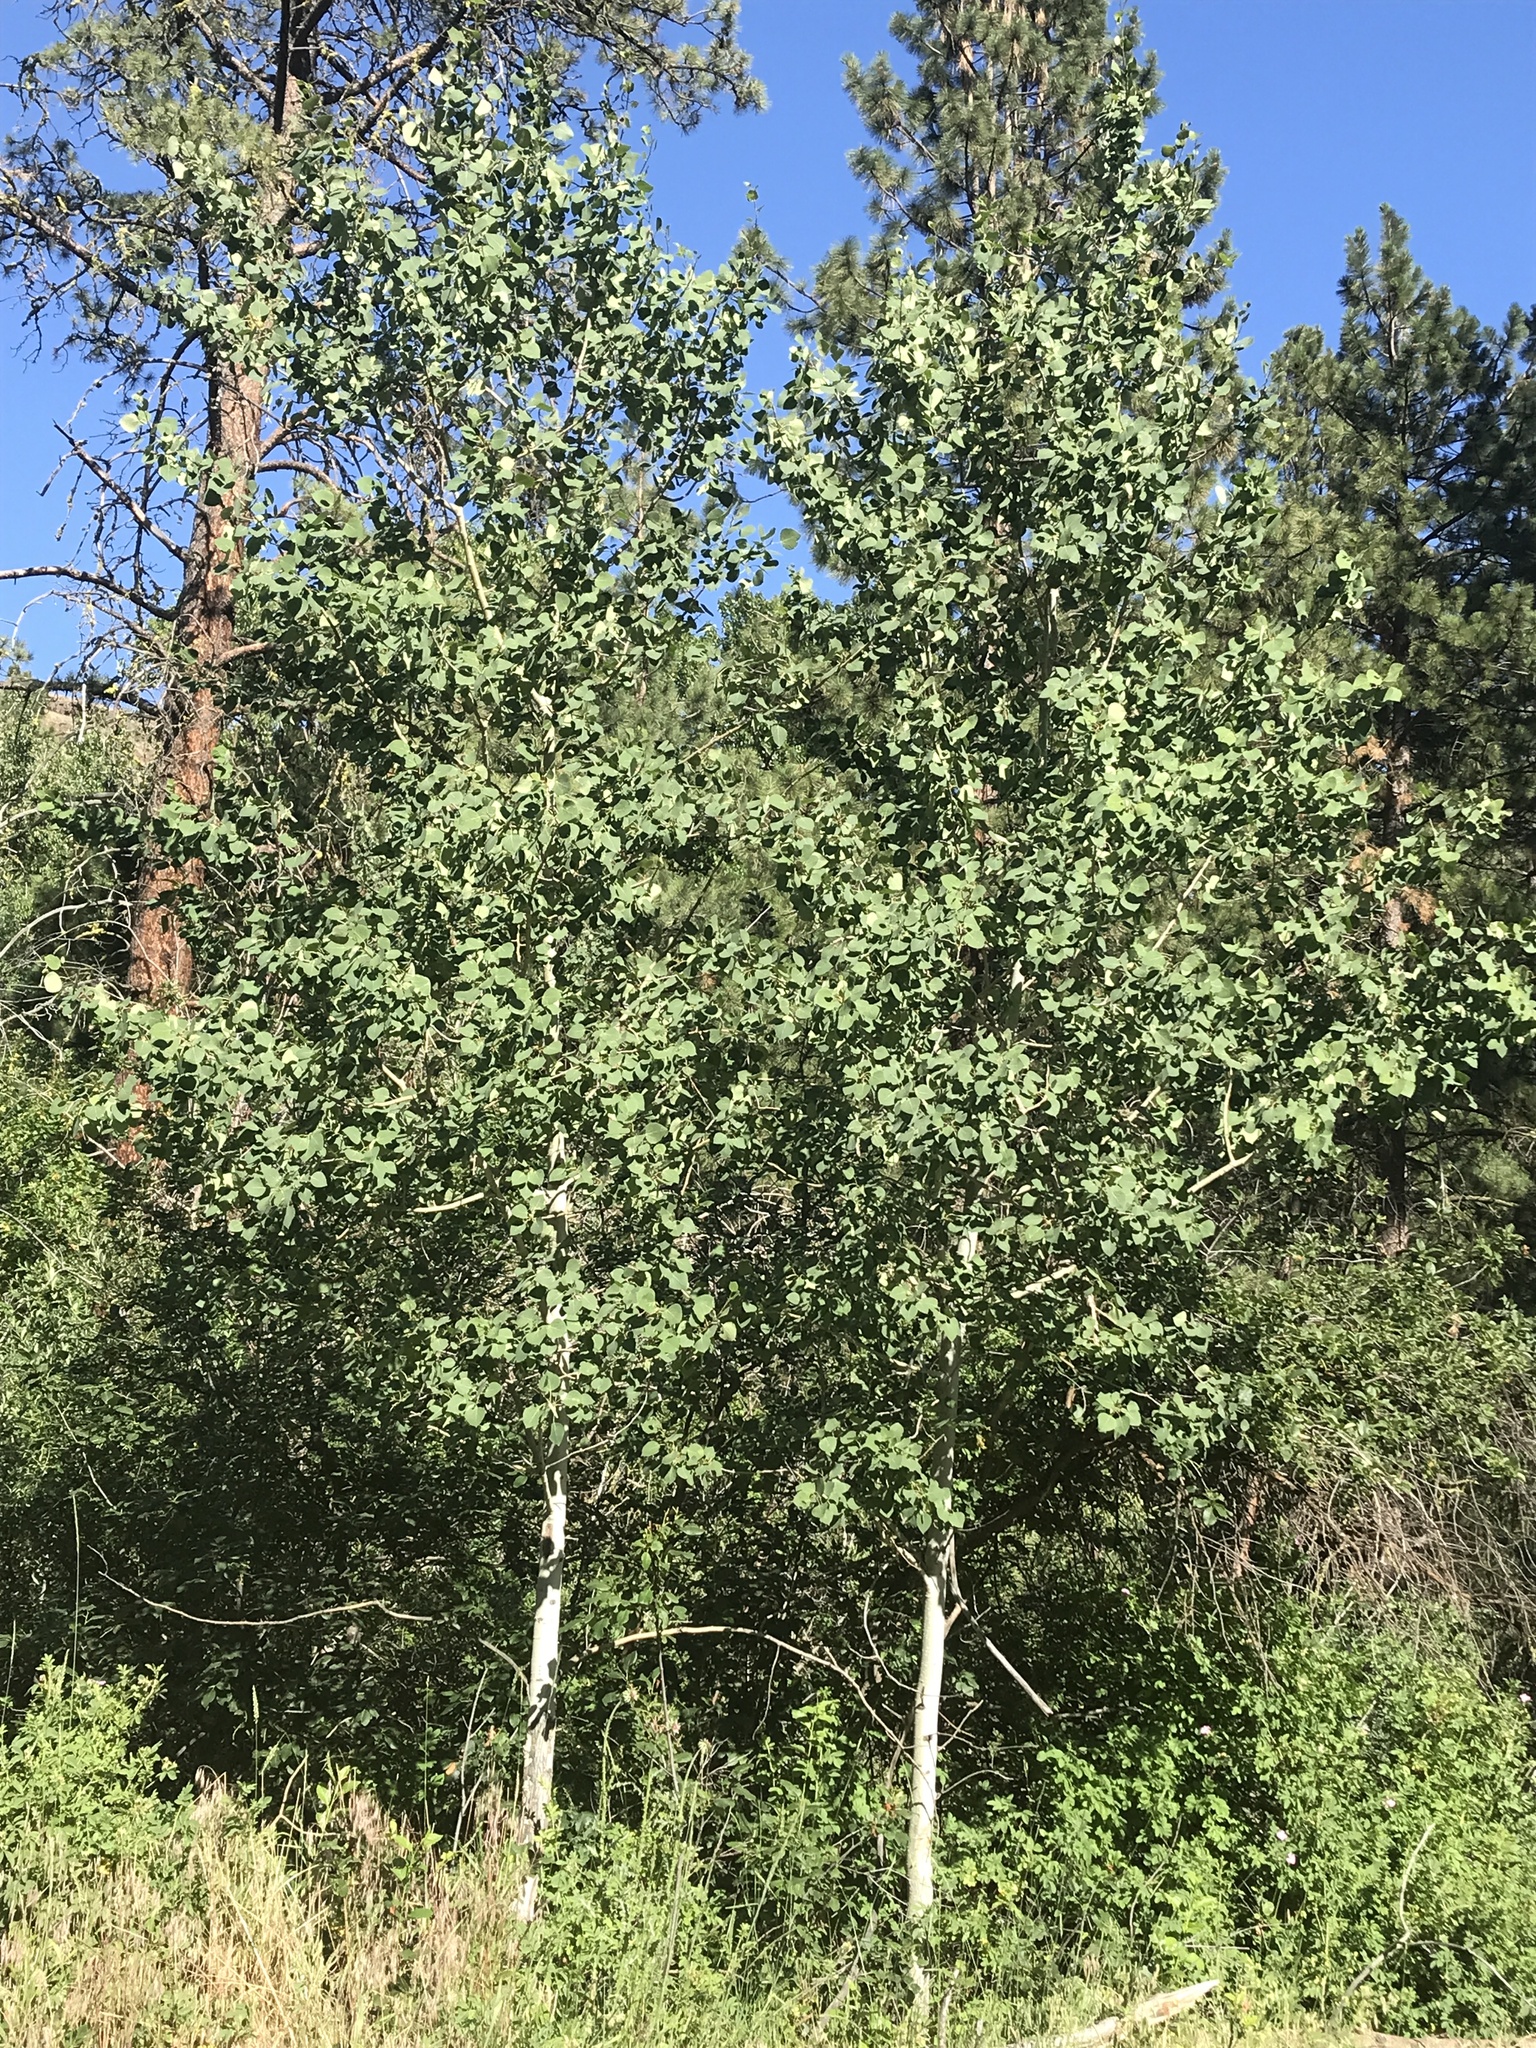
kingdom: Plantae
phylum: Tracheophyta
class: Magnoliopsida
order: Malpighiales
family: Salicaceae
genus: Populus
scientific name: Populus tremuloides
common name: Quaking aspen
